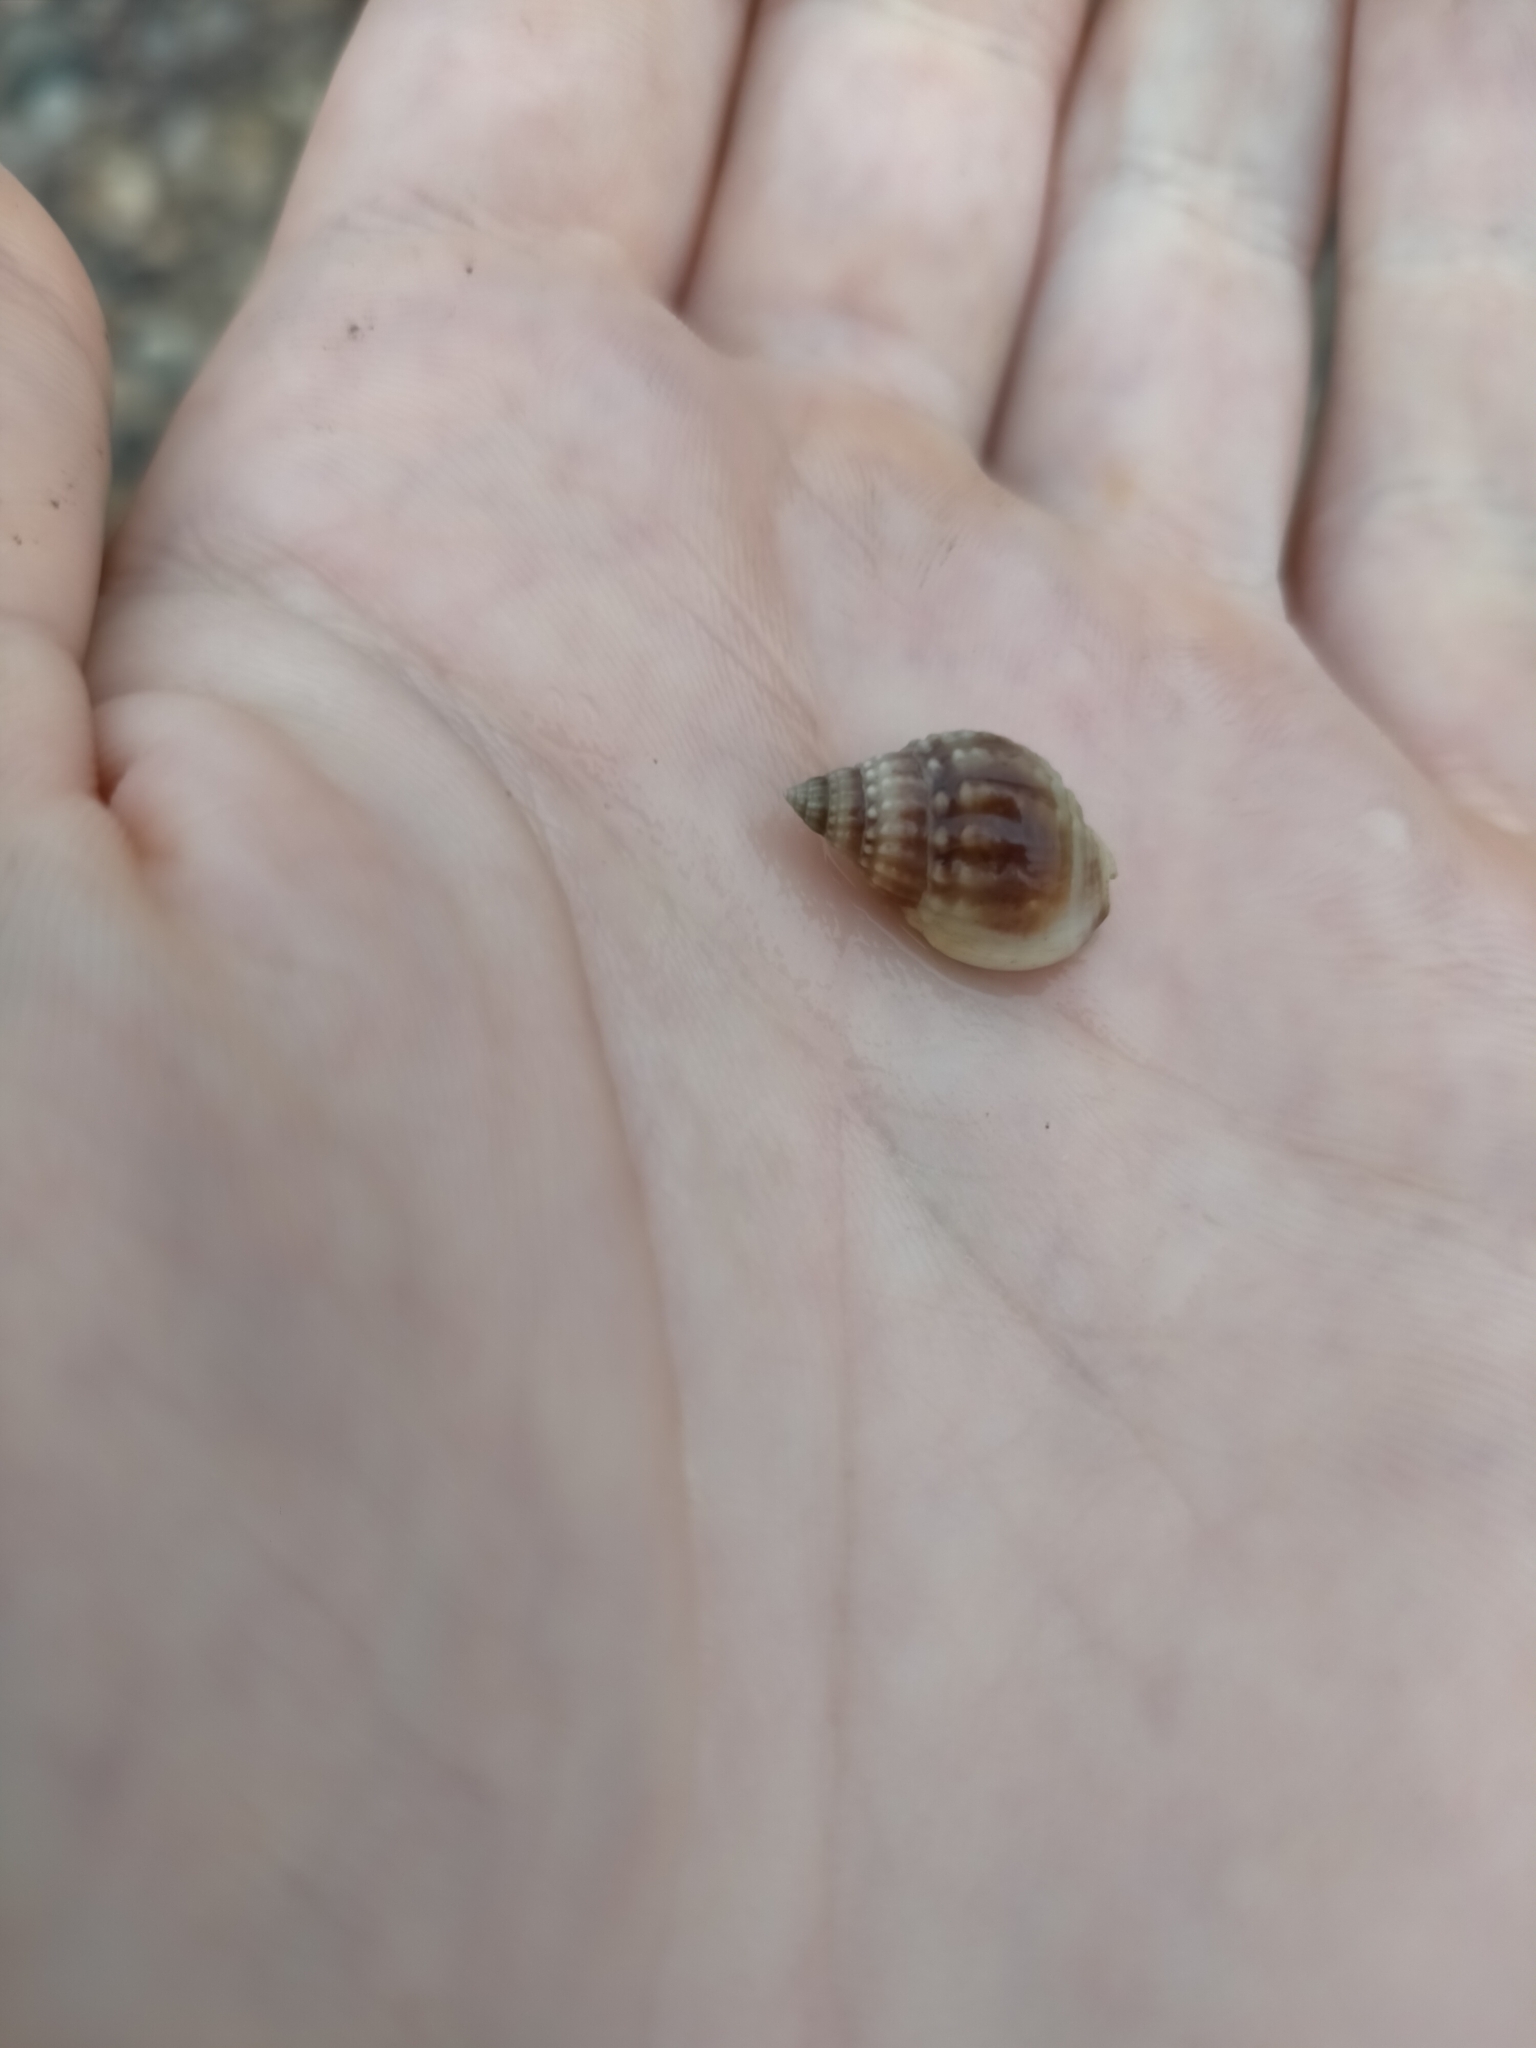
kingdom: Animalia
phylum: Mollusca
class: Gastropoda
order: Neogastropoda
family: Nassariidae
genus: Nassarius
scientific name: Nassarius pauperatus
